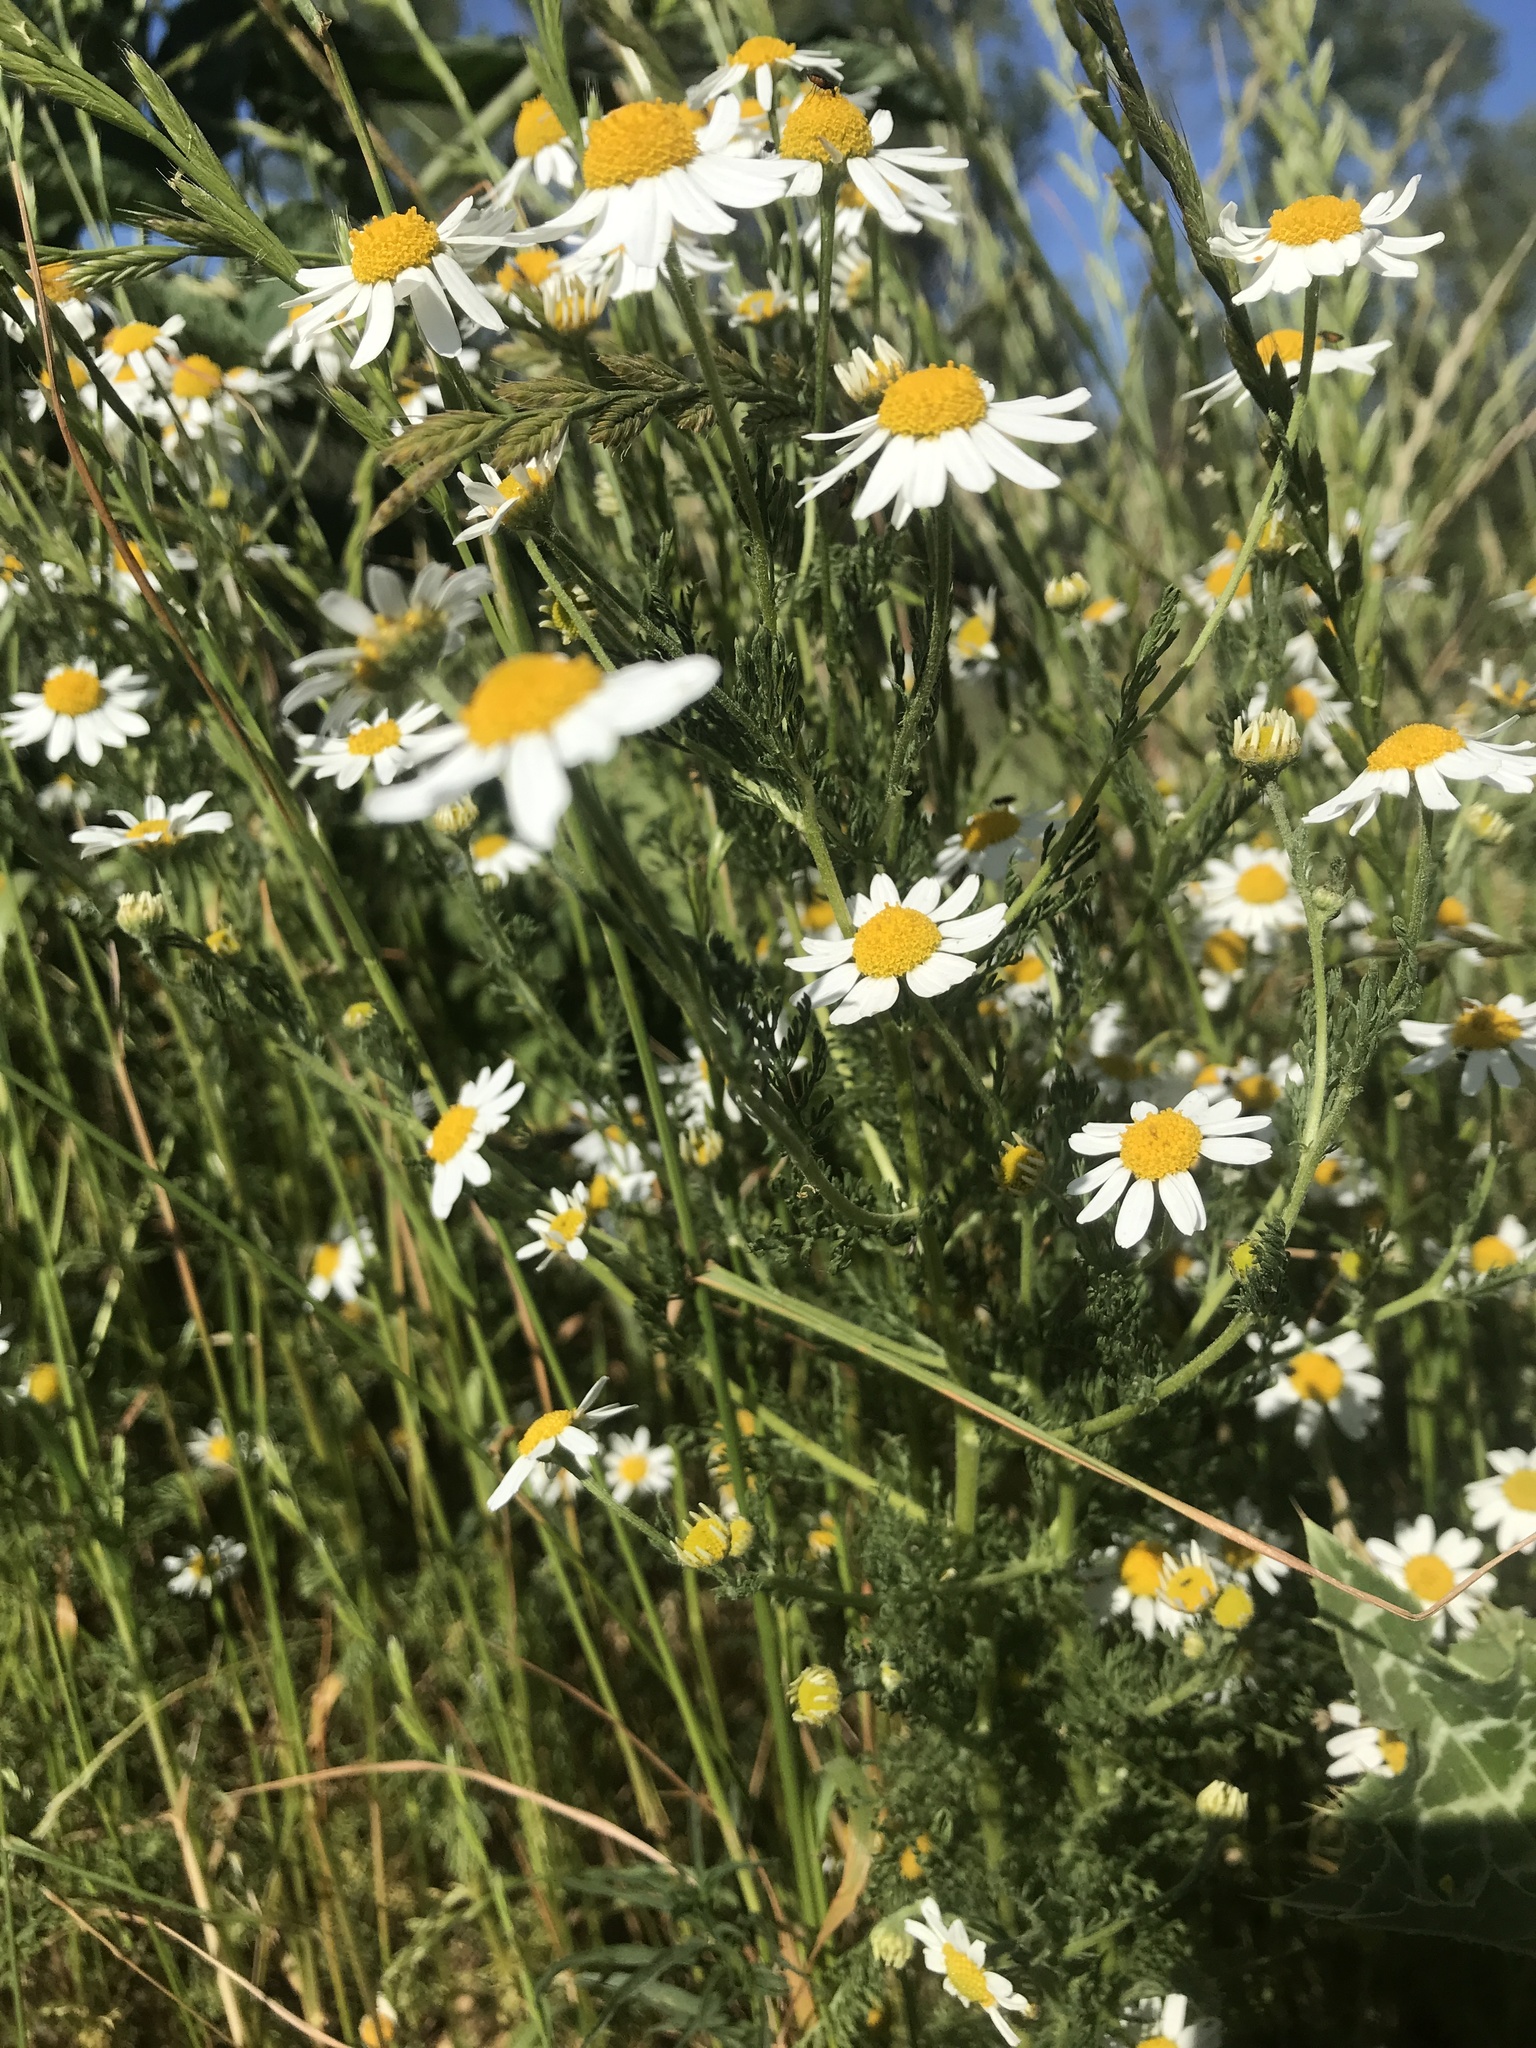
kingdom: Plantae
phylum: Tracheophyta
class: Magnoliopsida
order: Asterales
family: Asteraceae
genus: Anthemis
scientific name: Anthemis cotula
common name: Stinking chamomile
